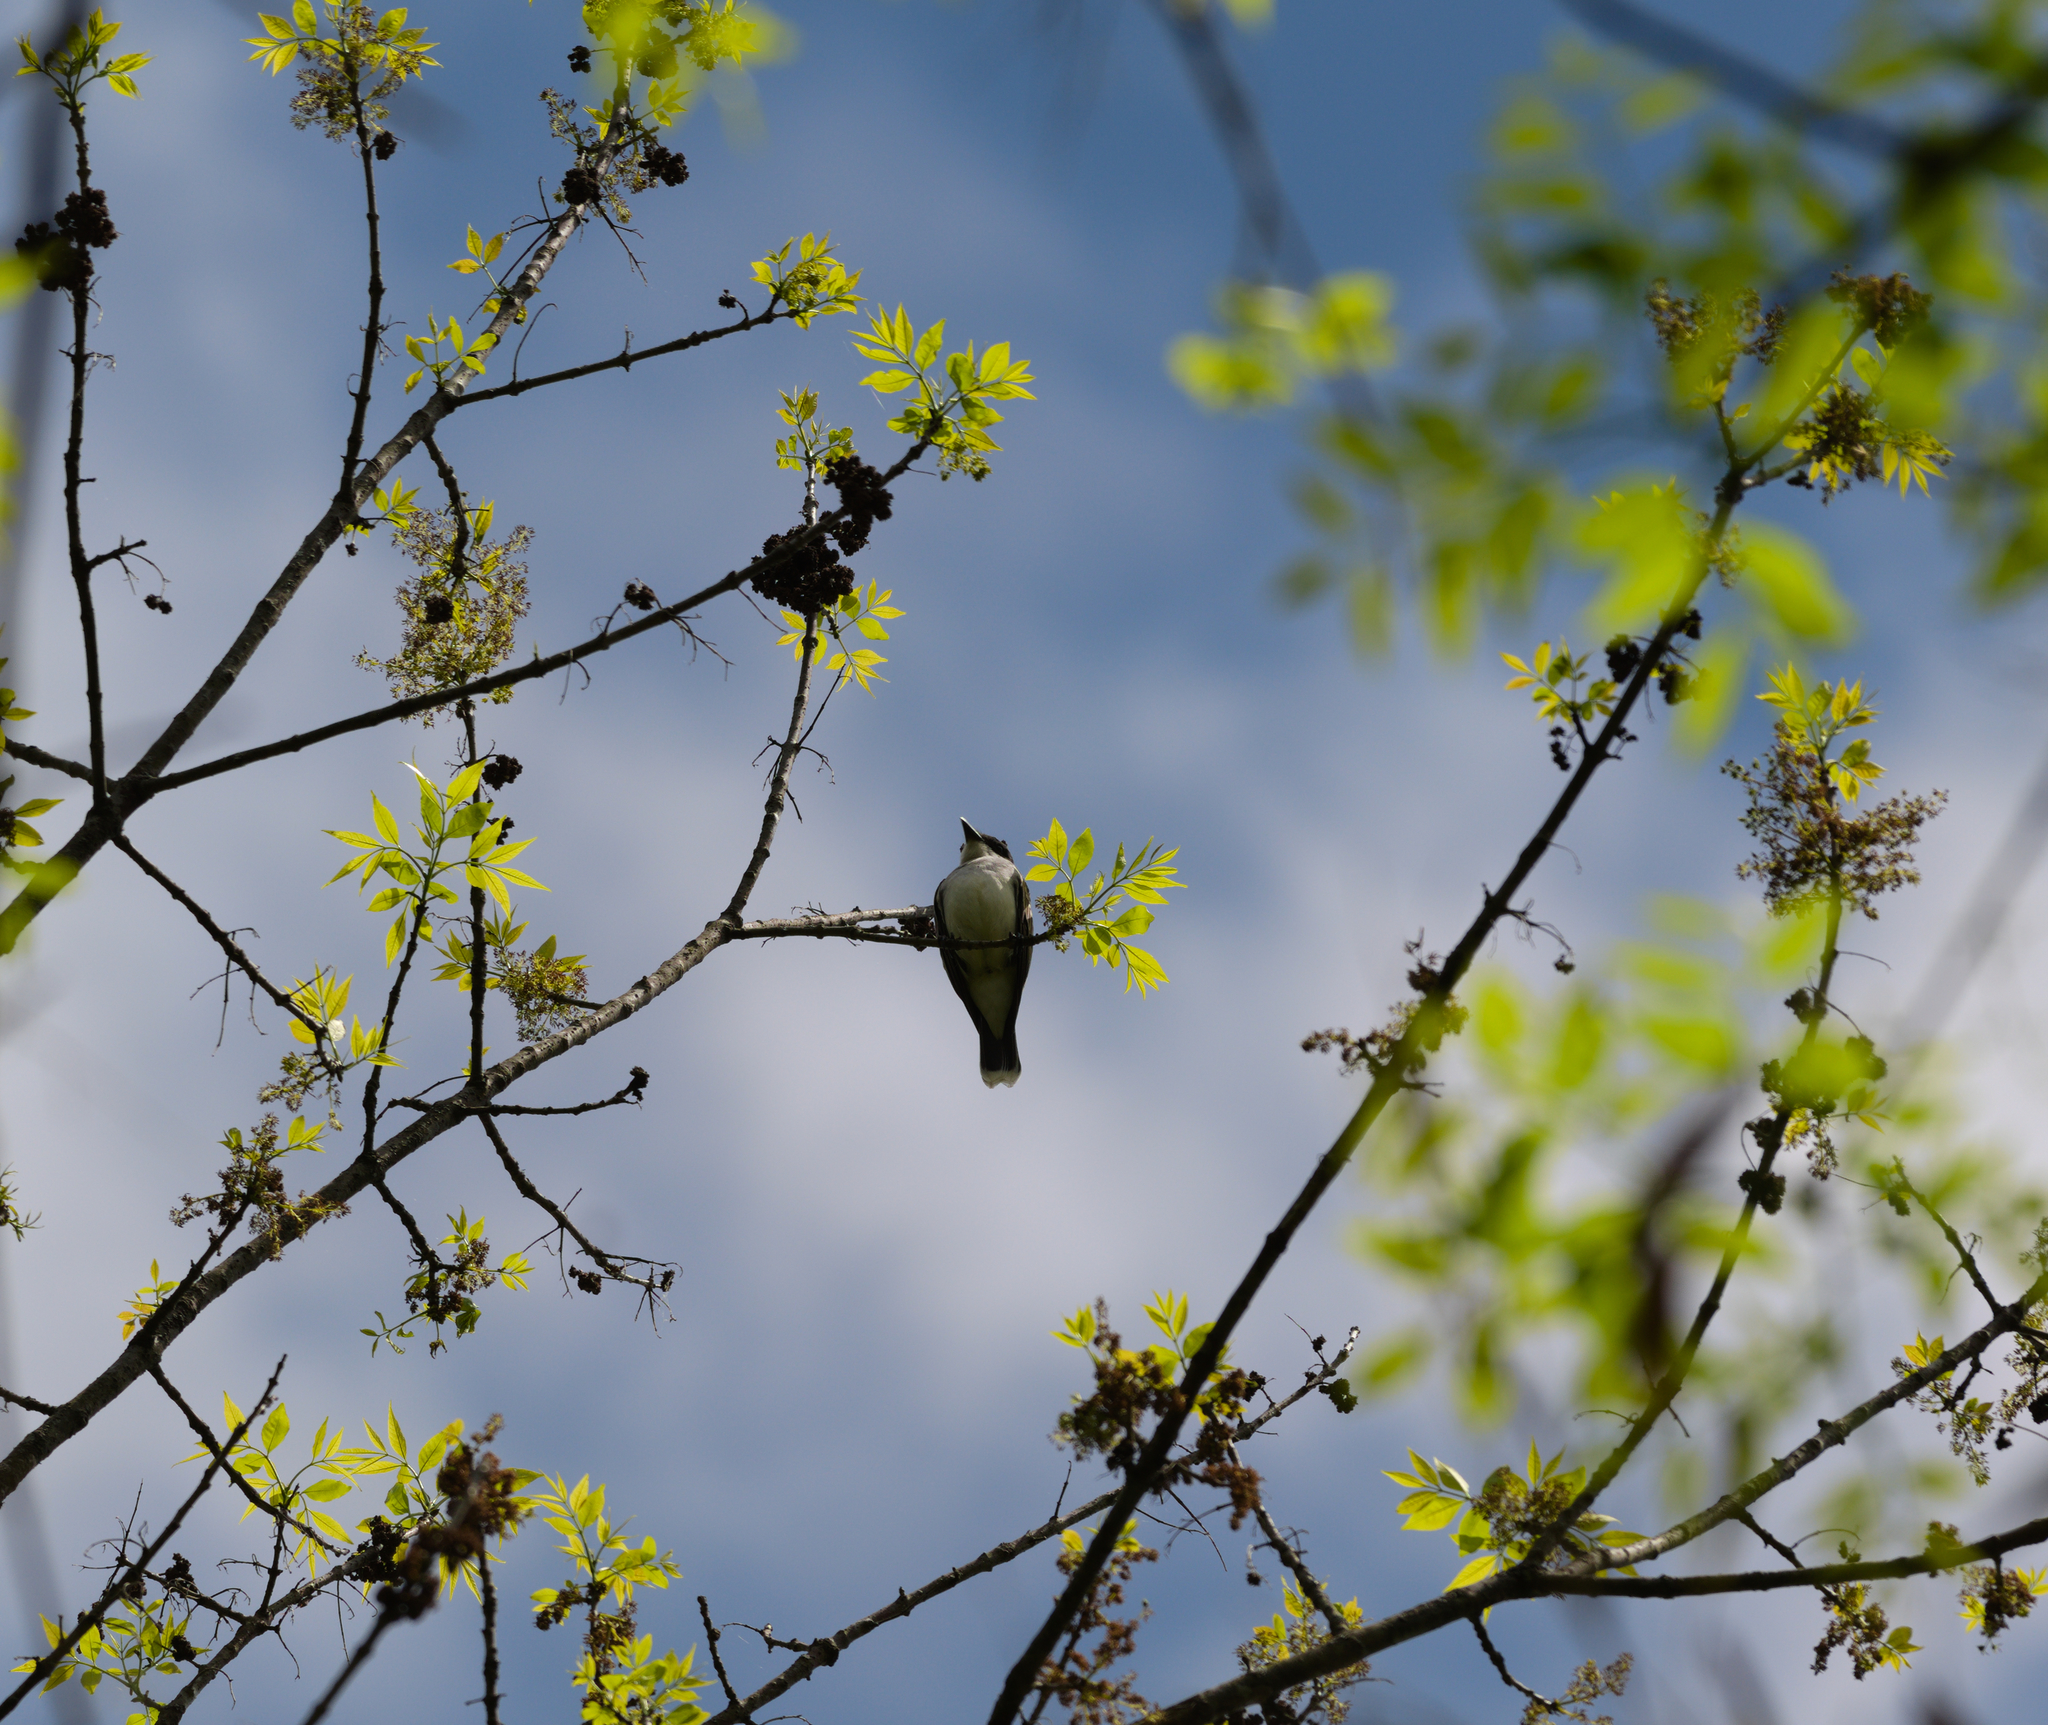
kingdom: Animalia
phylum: Chordata
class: Aves
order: Passeriformes
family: Tyrannidae
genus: Tyrannus
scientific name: Tyrannus tyrannus
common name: Eastern kingbird
